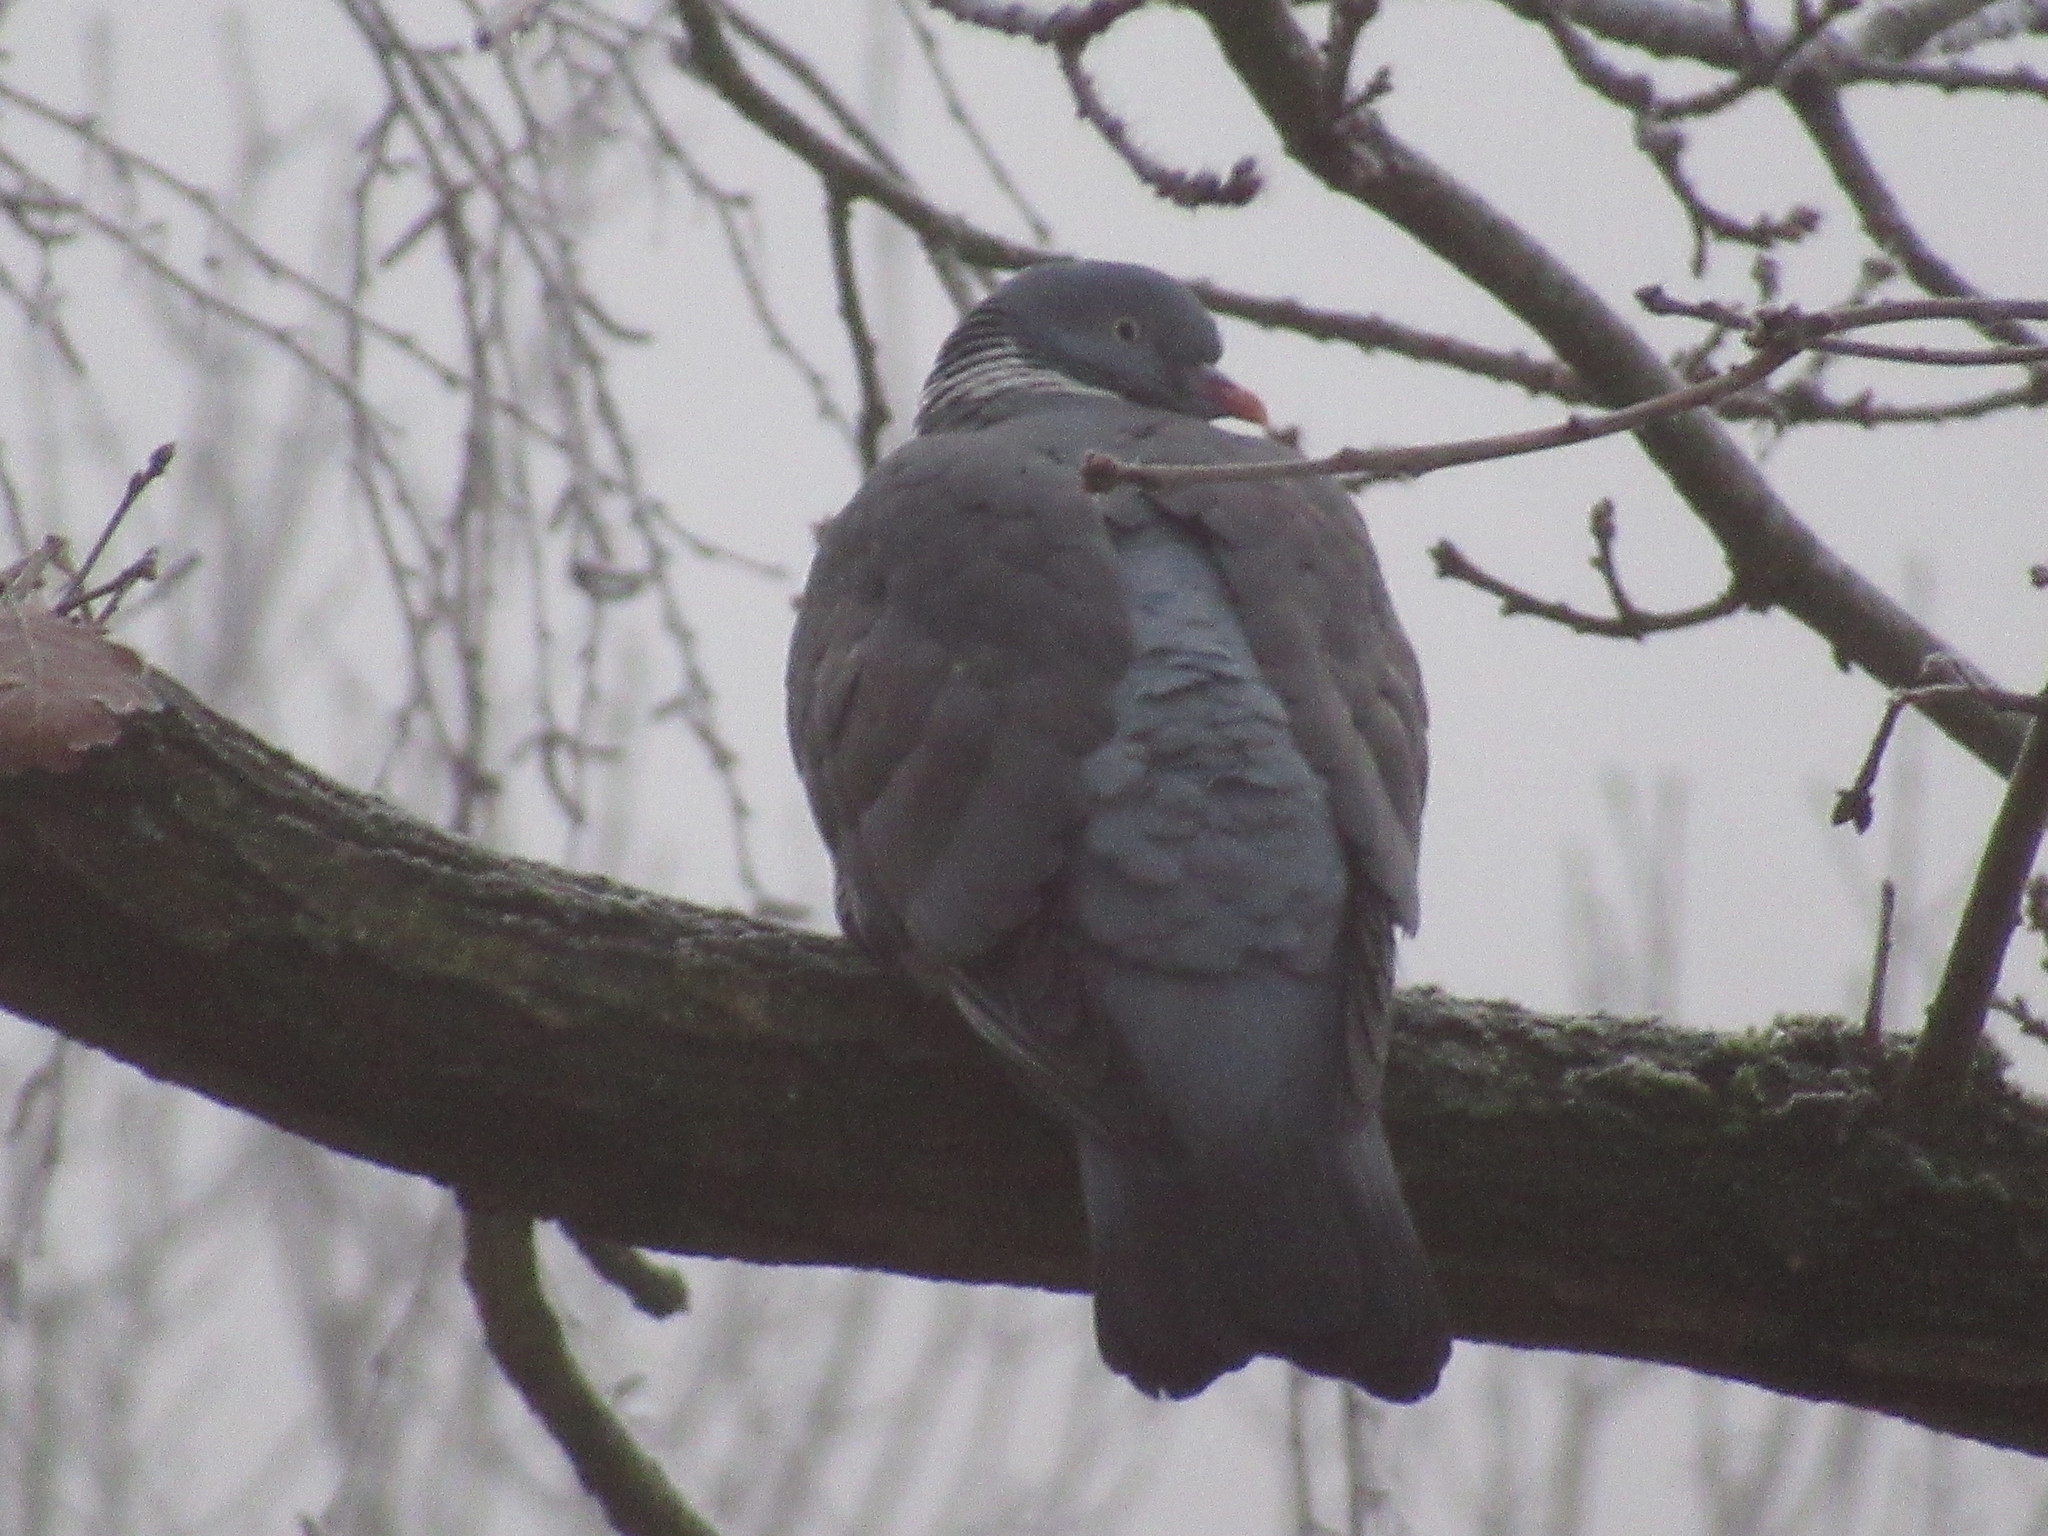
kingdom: Animalia
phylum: Chordata
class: Aves
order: Columbiformes
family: Columbidae
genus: Columba
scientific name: Columba palumbus
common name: Common wood pigeon
